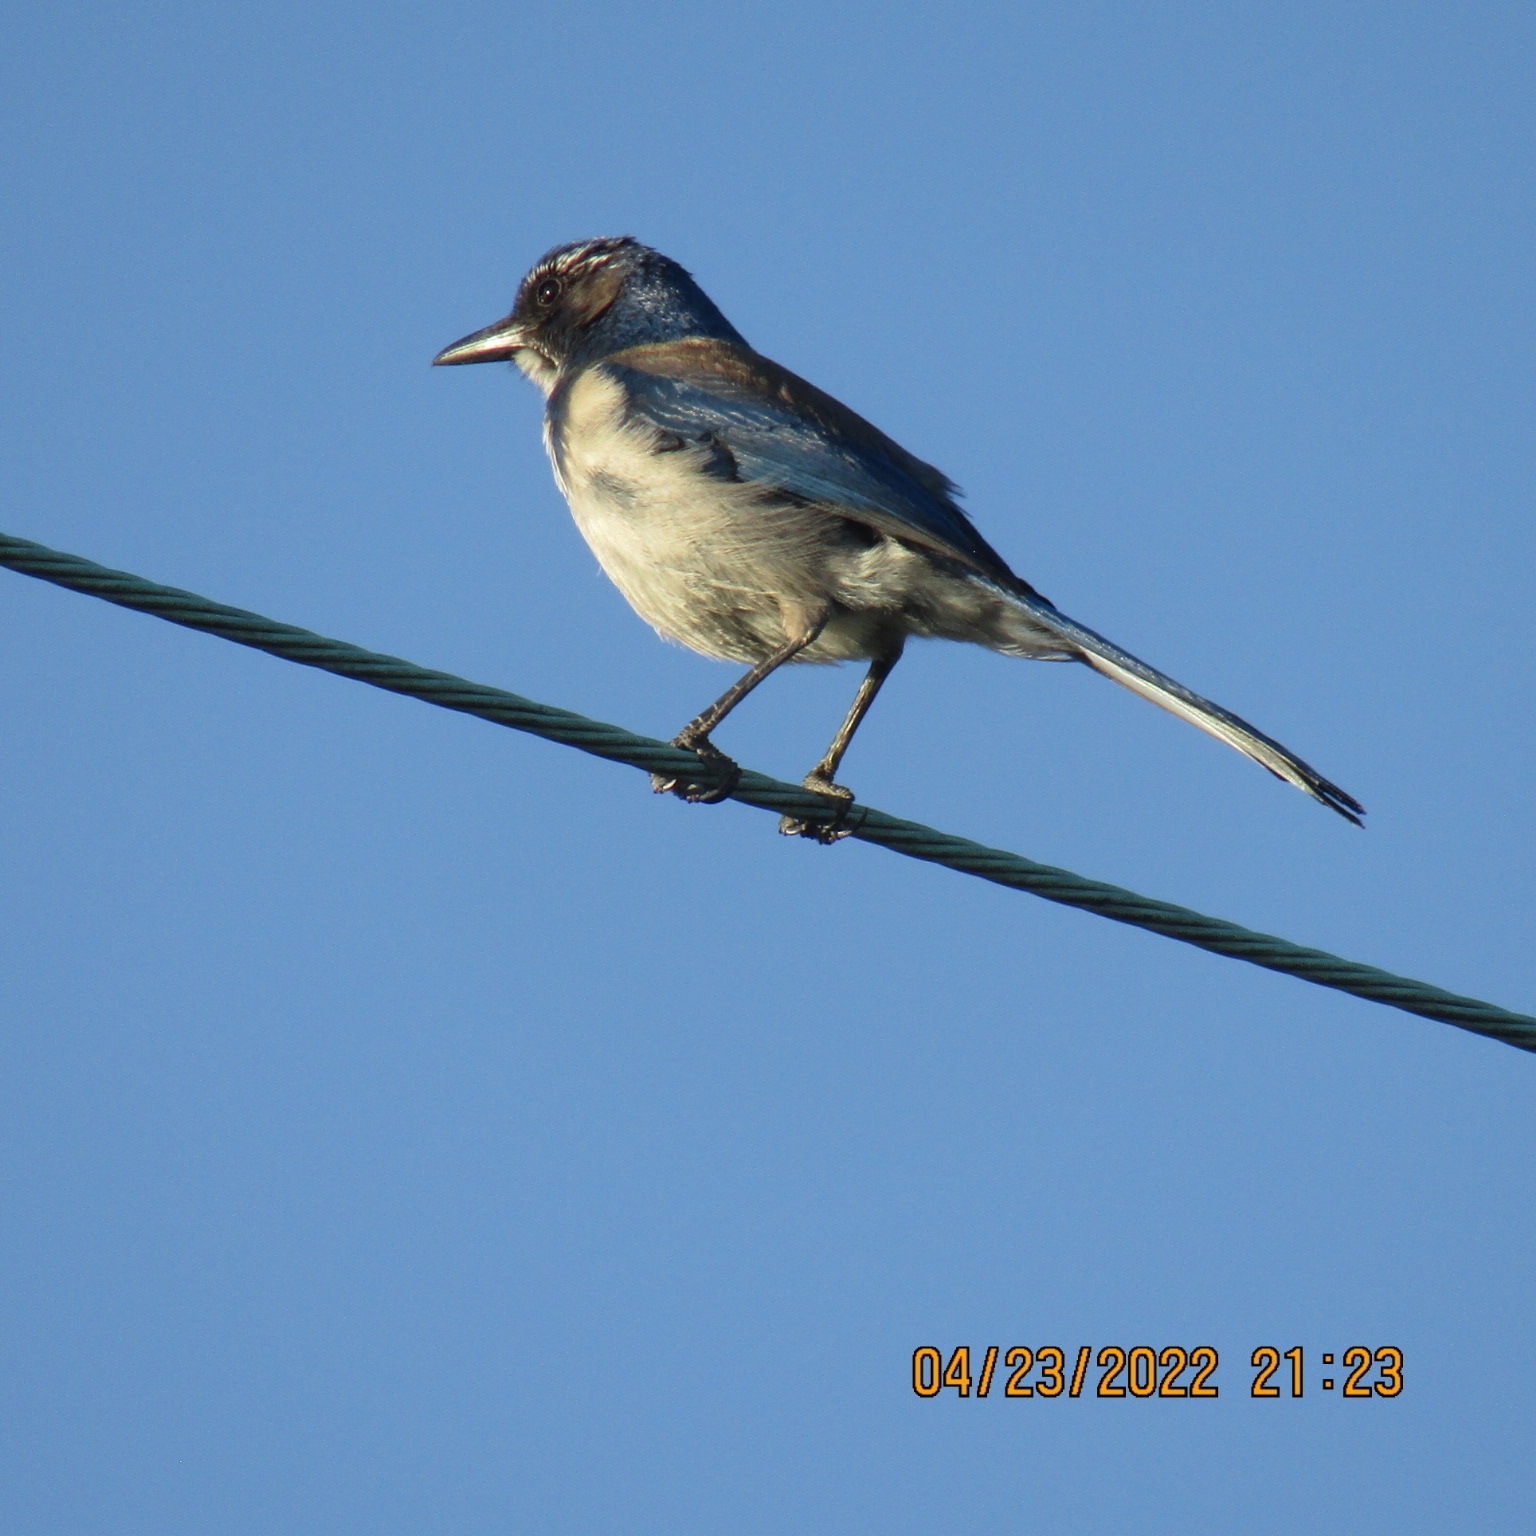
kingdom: Animalia
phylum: Chordata
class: Aves
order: Passeriformes
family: Corvidae
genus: Aphelocoma
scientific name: Aphelocoma californica
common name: California scrub-jay
